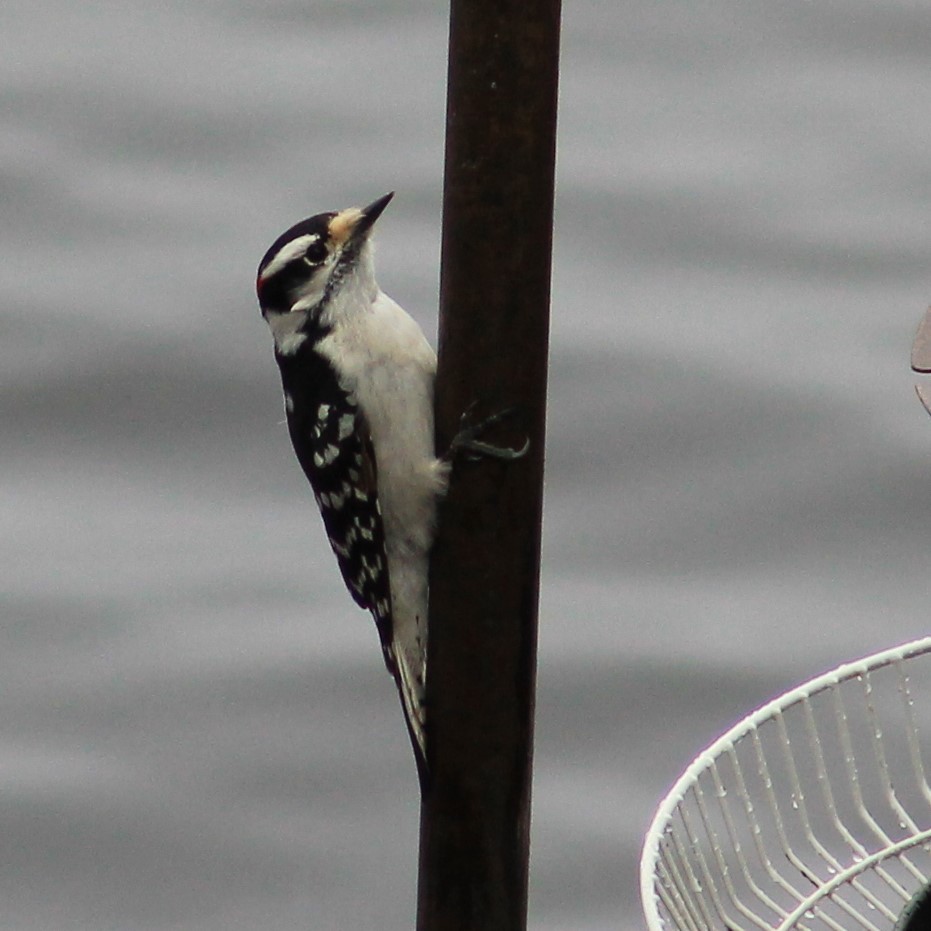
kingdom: Animalia
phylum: Chordata
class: Aves
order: Piciformes
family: Picidae
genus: Dryobates
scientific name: Dryobates pubescens
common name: Downy woodpecker
